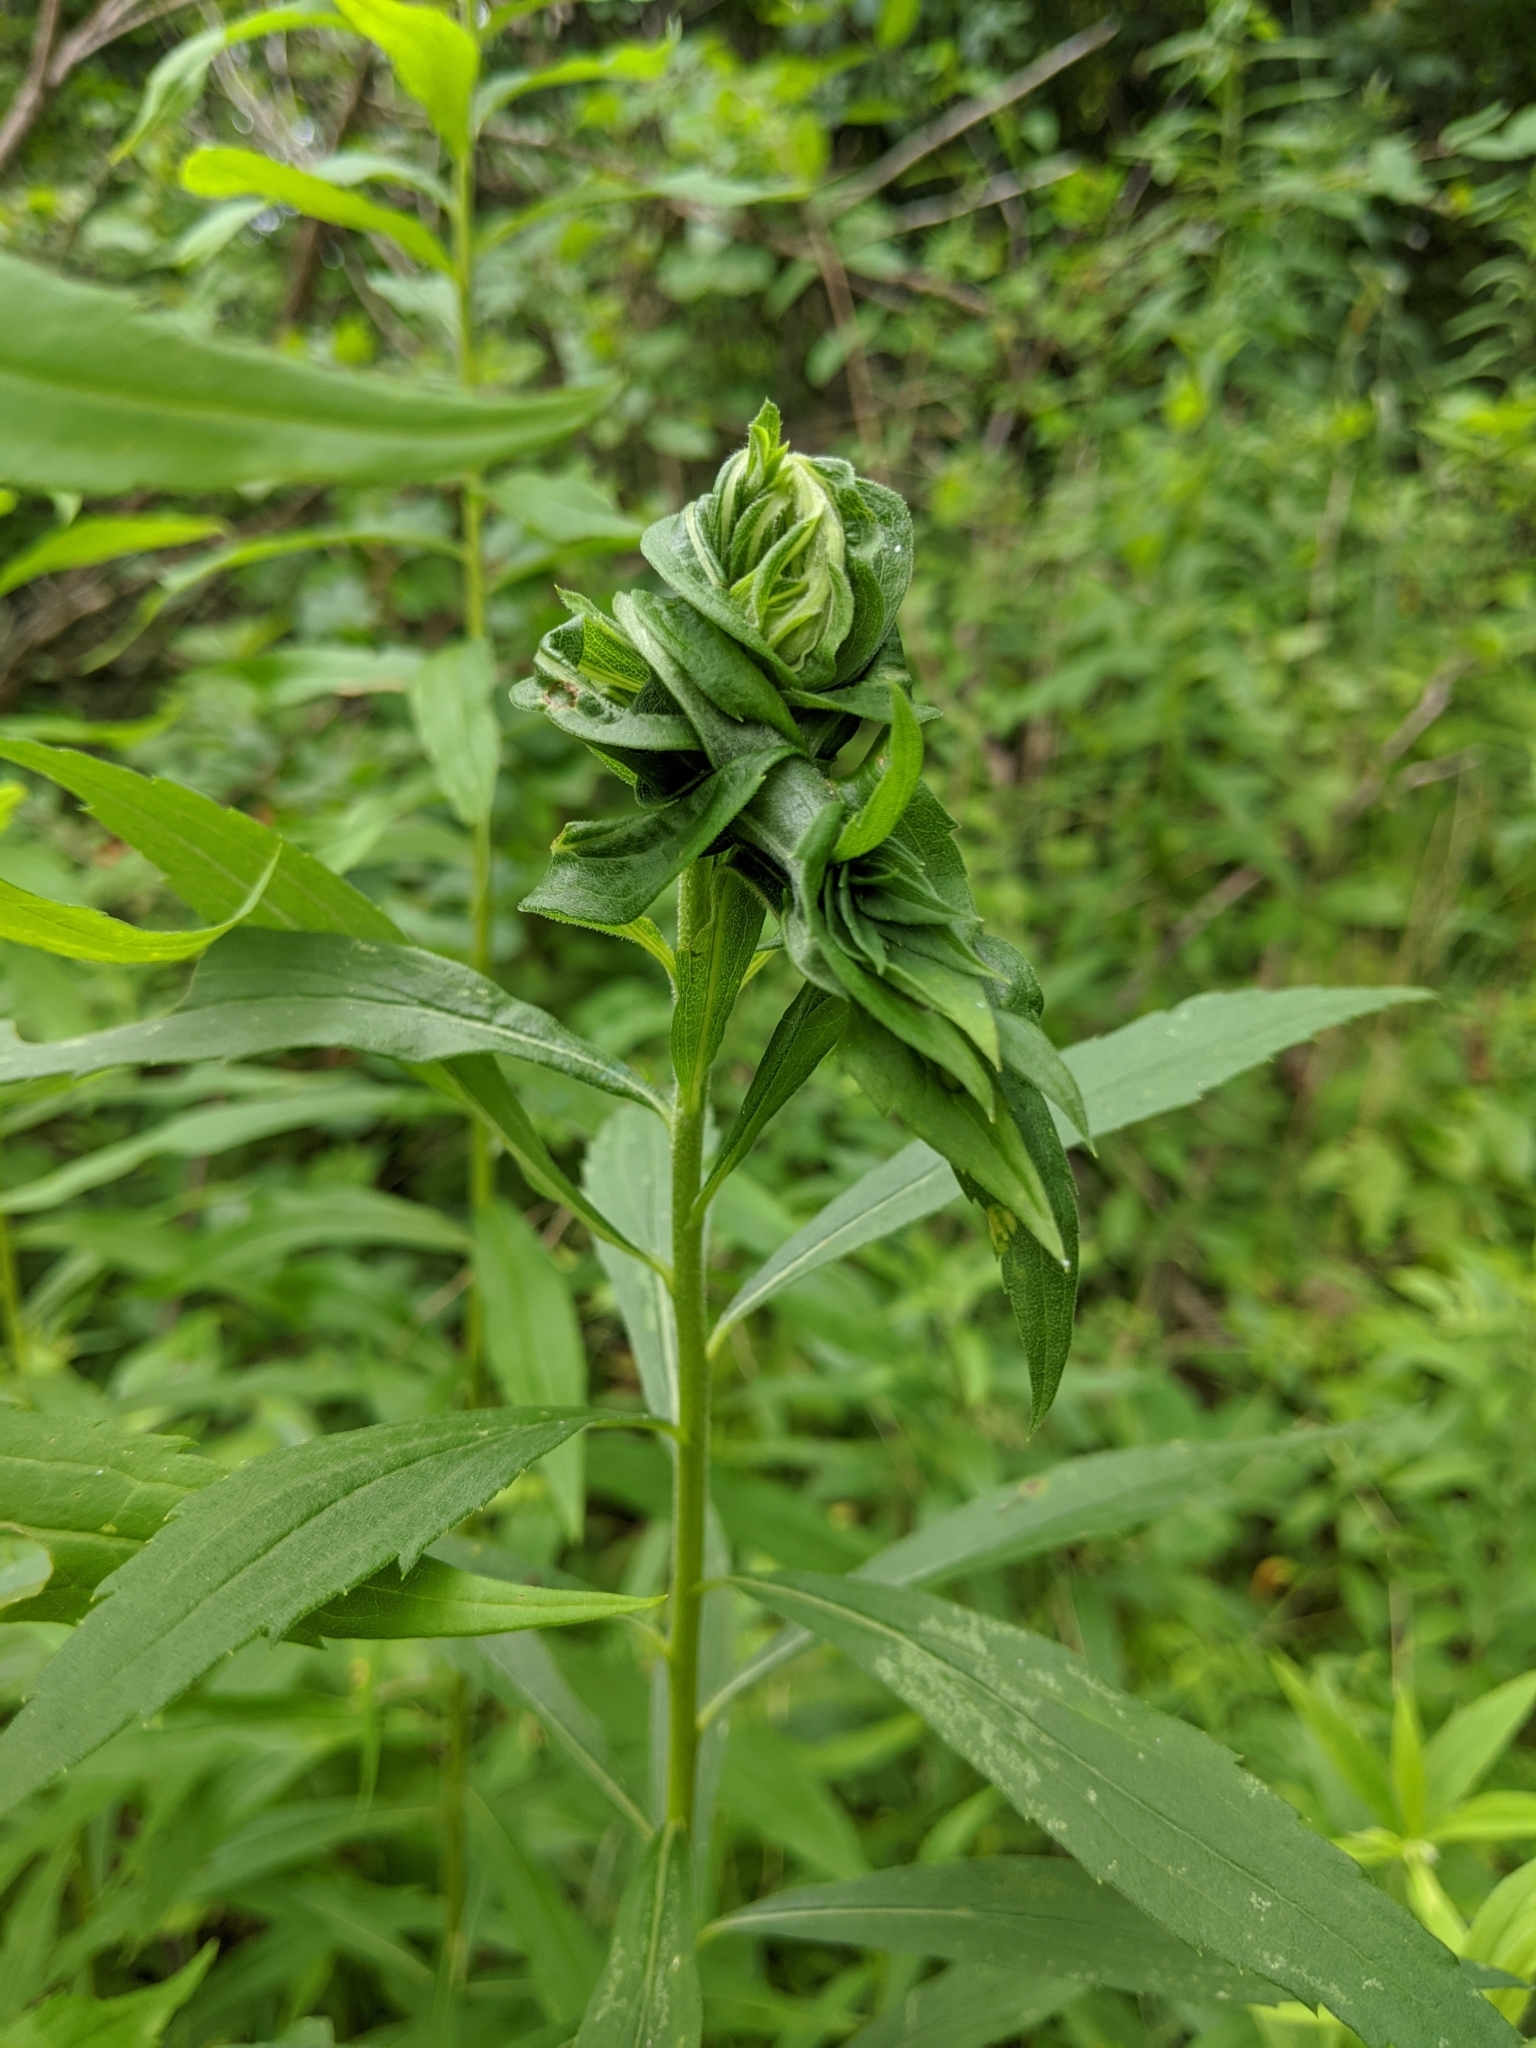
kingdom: Animalia
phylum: Arthropoda
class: Insecta
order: Diptera
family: Cecidomyiidae
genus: Rhopalomyia
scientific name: Rhopalomyia solidaginis
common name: Goldenrod bunch gall midge
